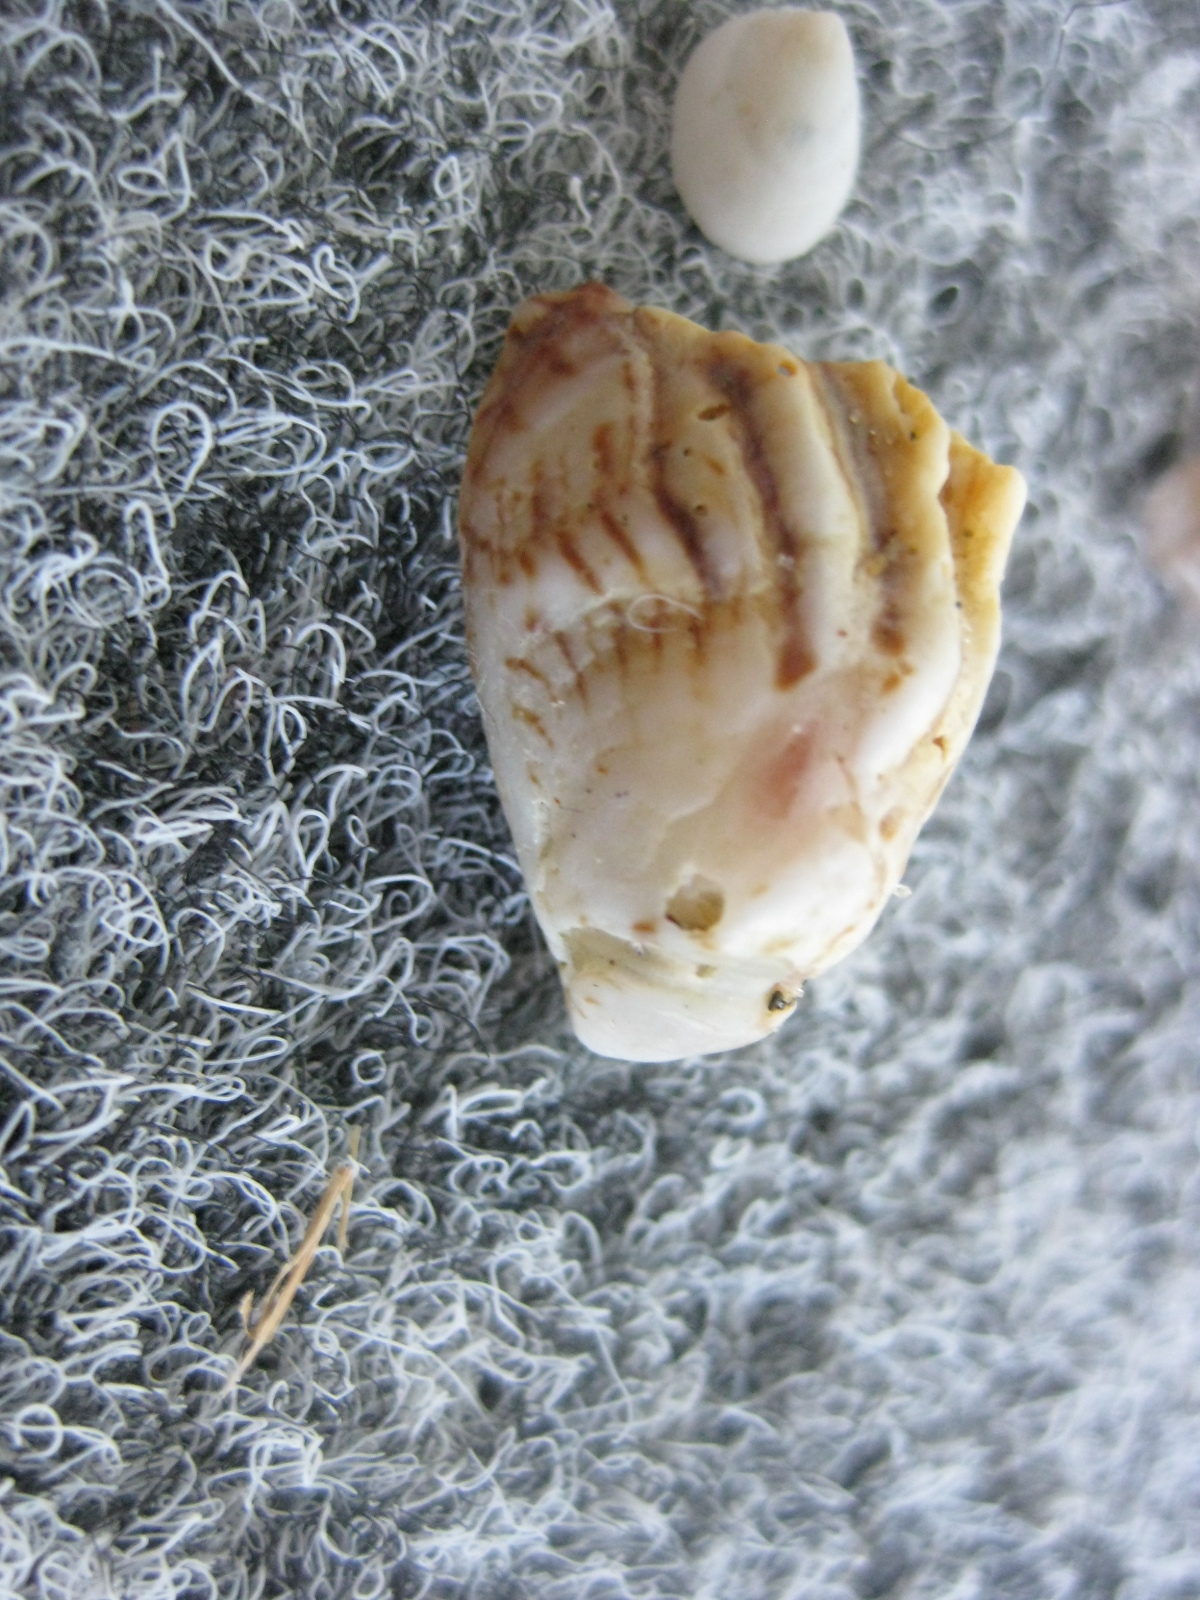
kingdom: Animalia
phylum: Mollusca
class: Gastropoda
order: Littorinimorpha
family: Calyptraeidae
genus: Maoricrypta
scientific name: Maoricrypta costata
